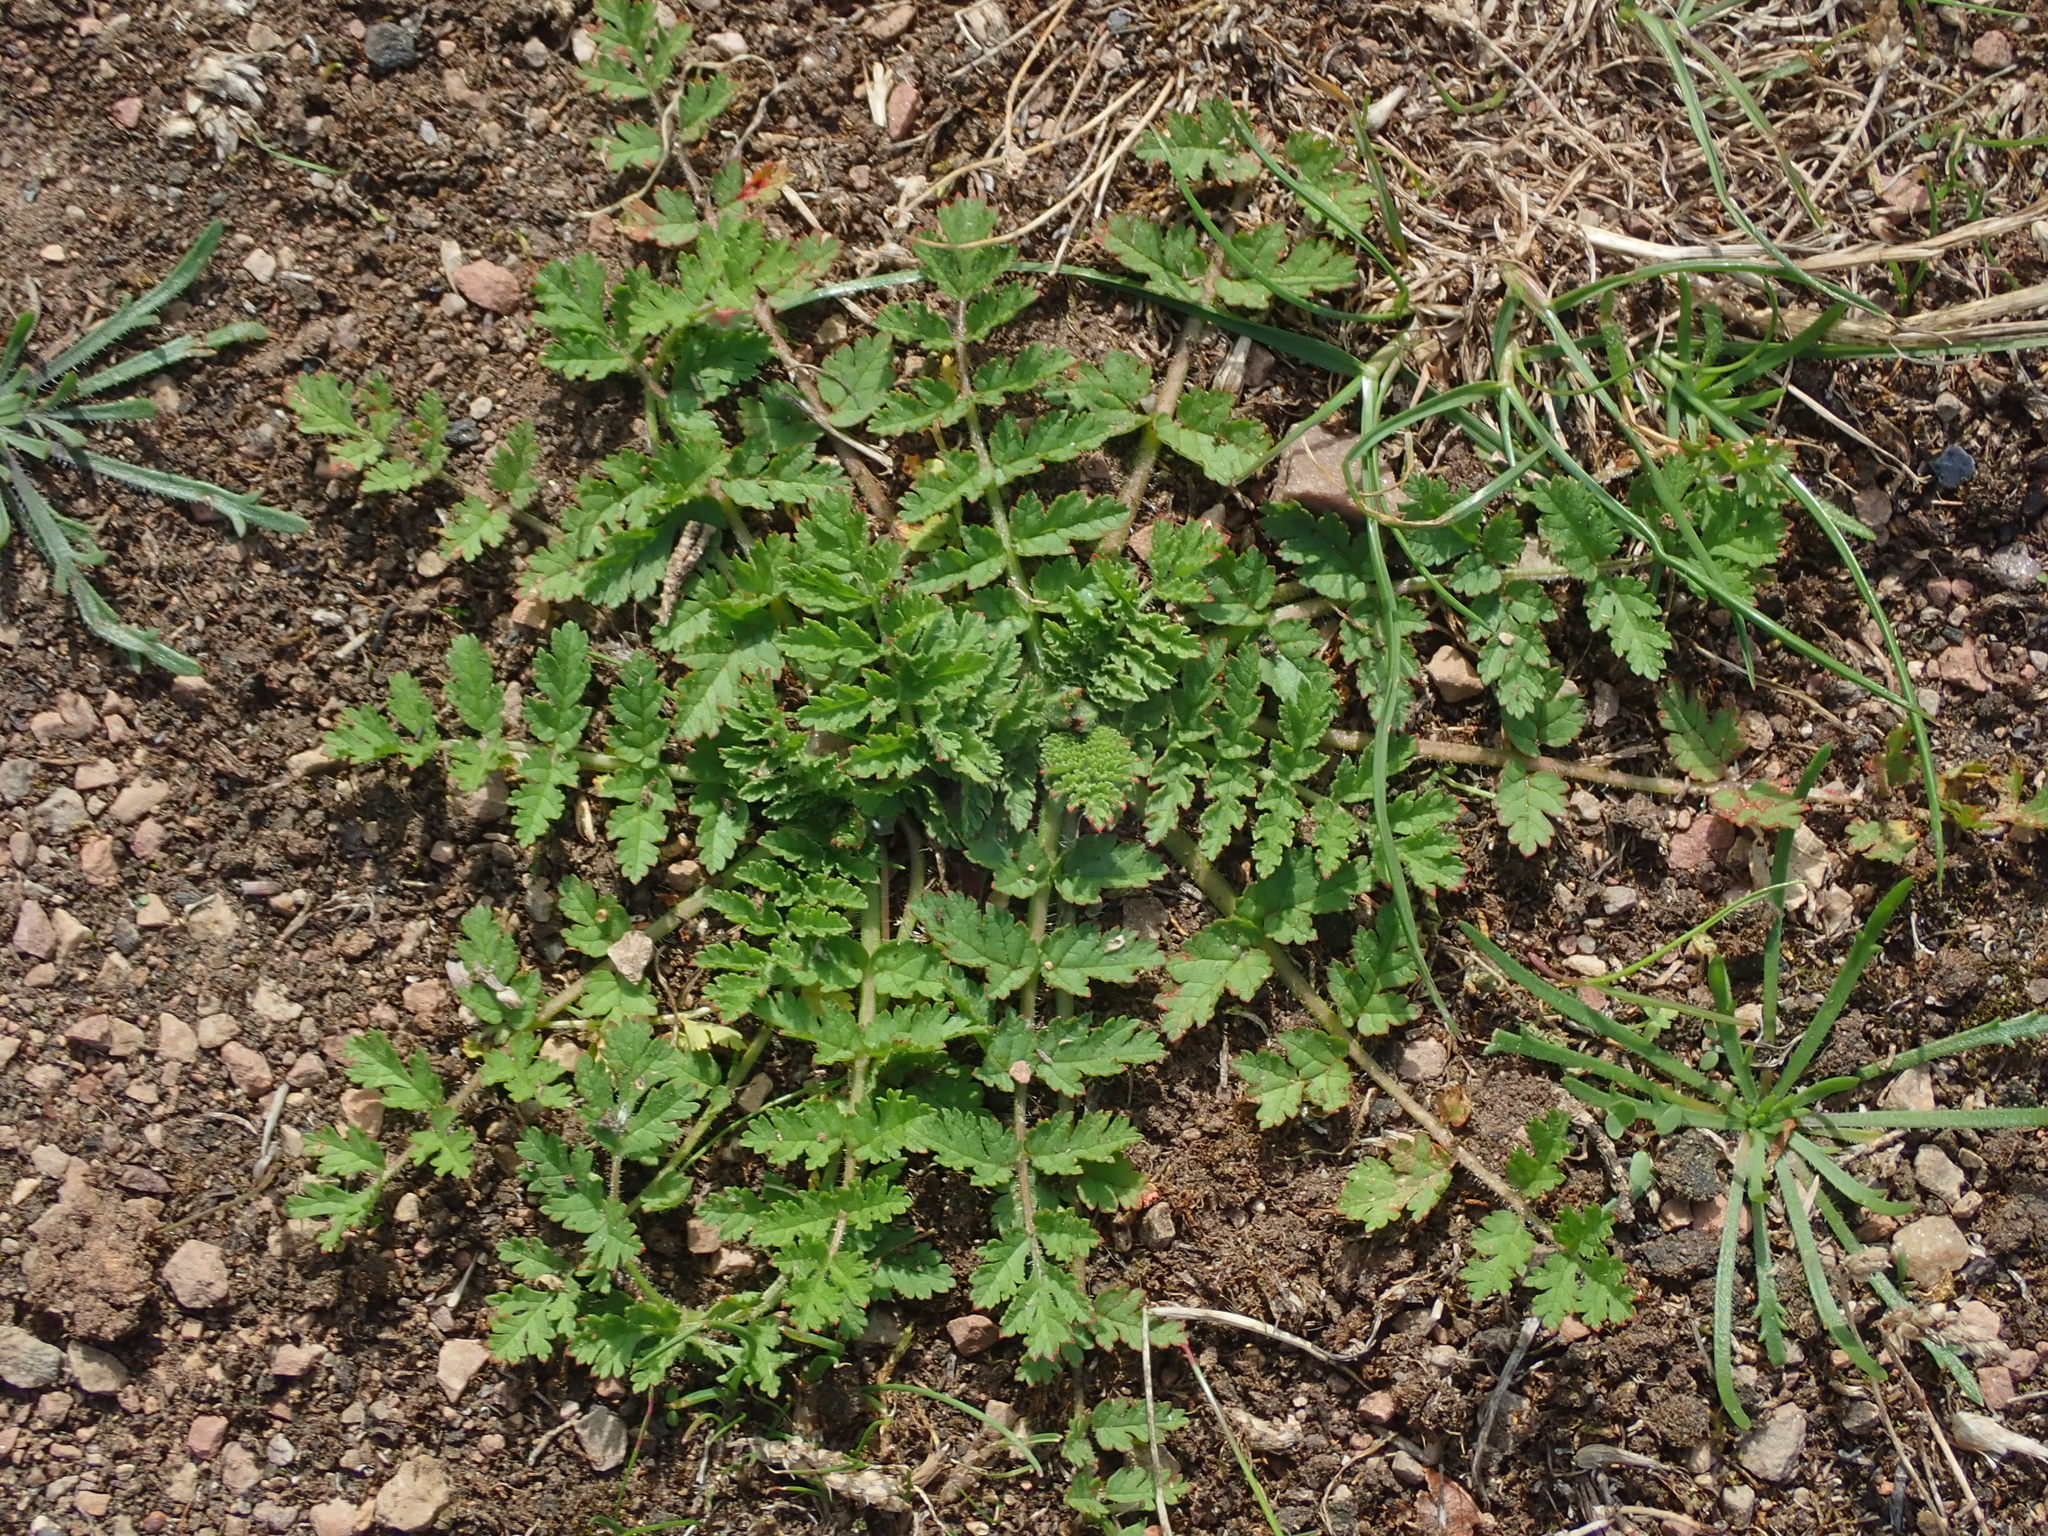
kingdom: Plantae
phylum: Tracheophyta
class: Magnoliopsida
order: Geraniales
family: Geraniaceae
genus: Erodium
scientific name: Erodium moschatum
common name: Musk stork's-bill
